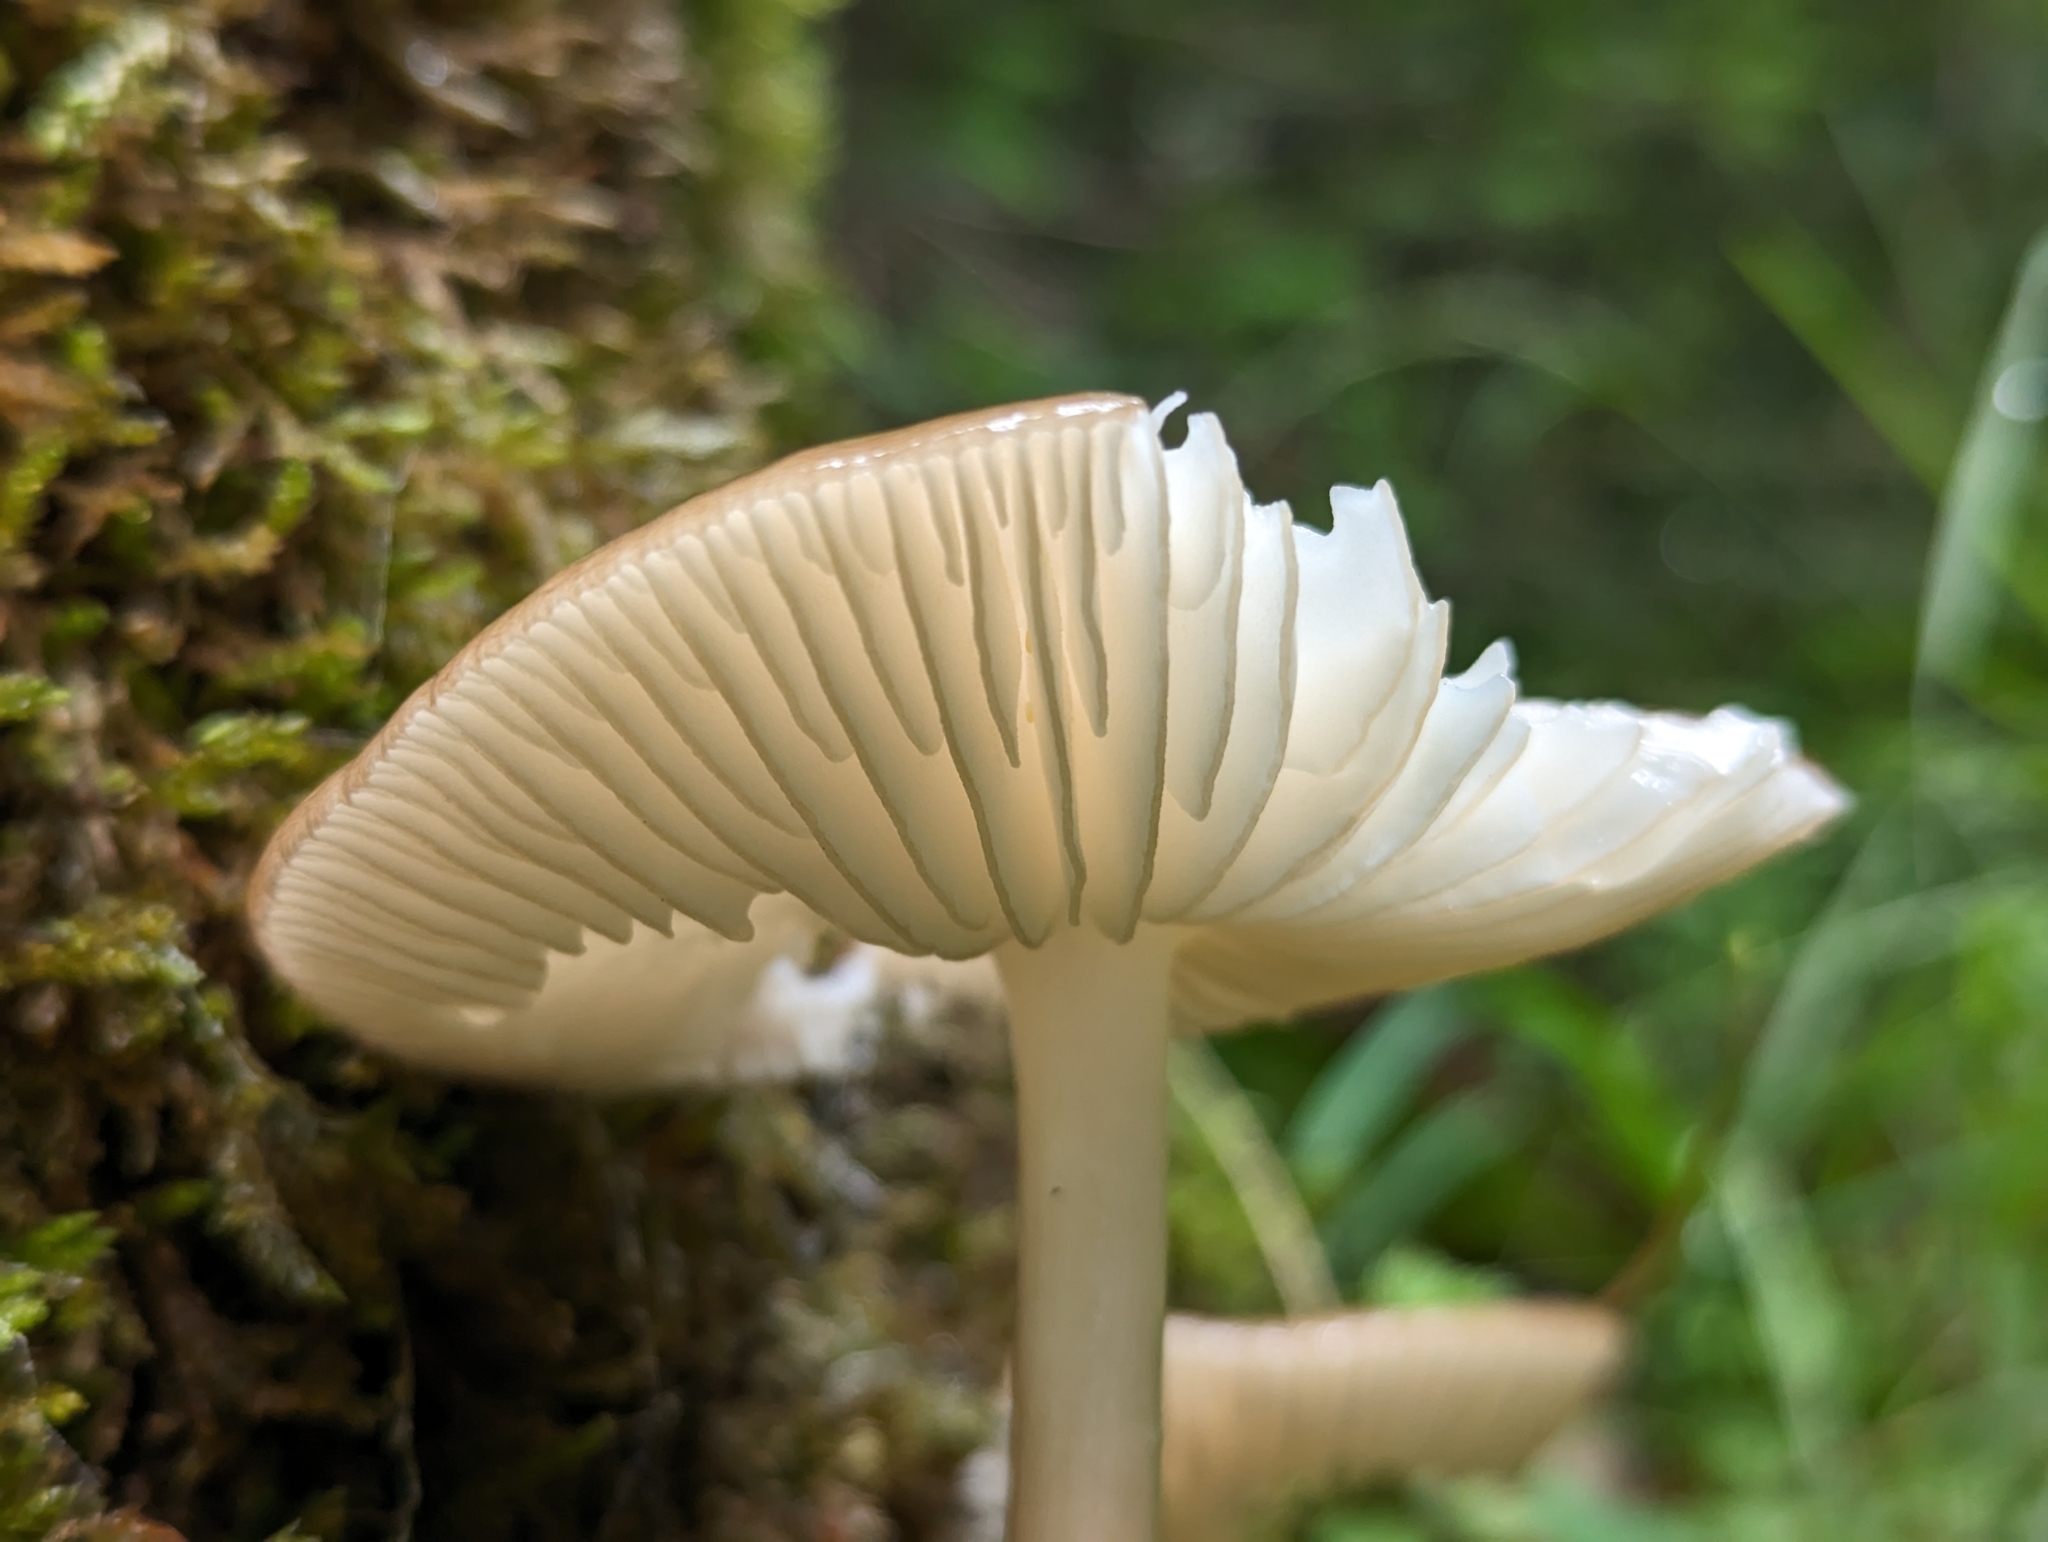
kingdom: Fungi
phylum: Basidiomycota
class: Agaricomycetes
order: Agaricales
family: Physalacriaceae
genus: Hymenopellis
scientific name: Hymenopellis radicata
